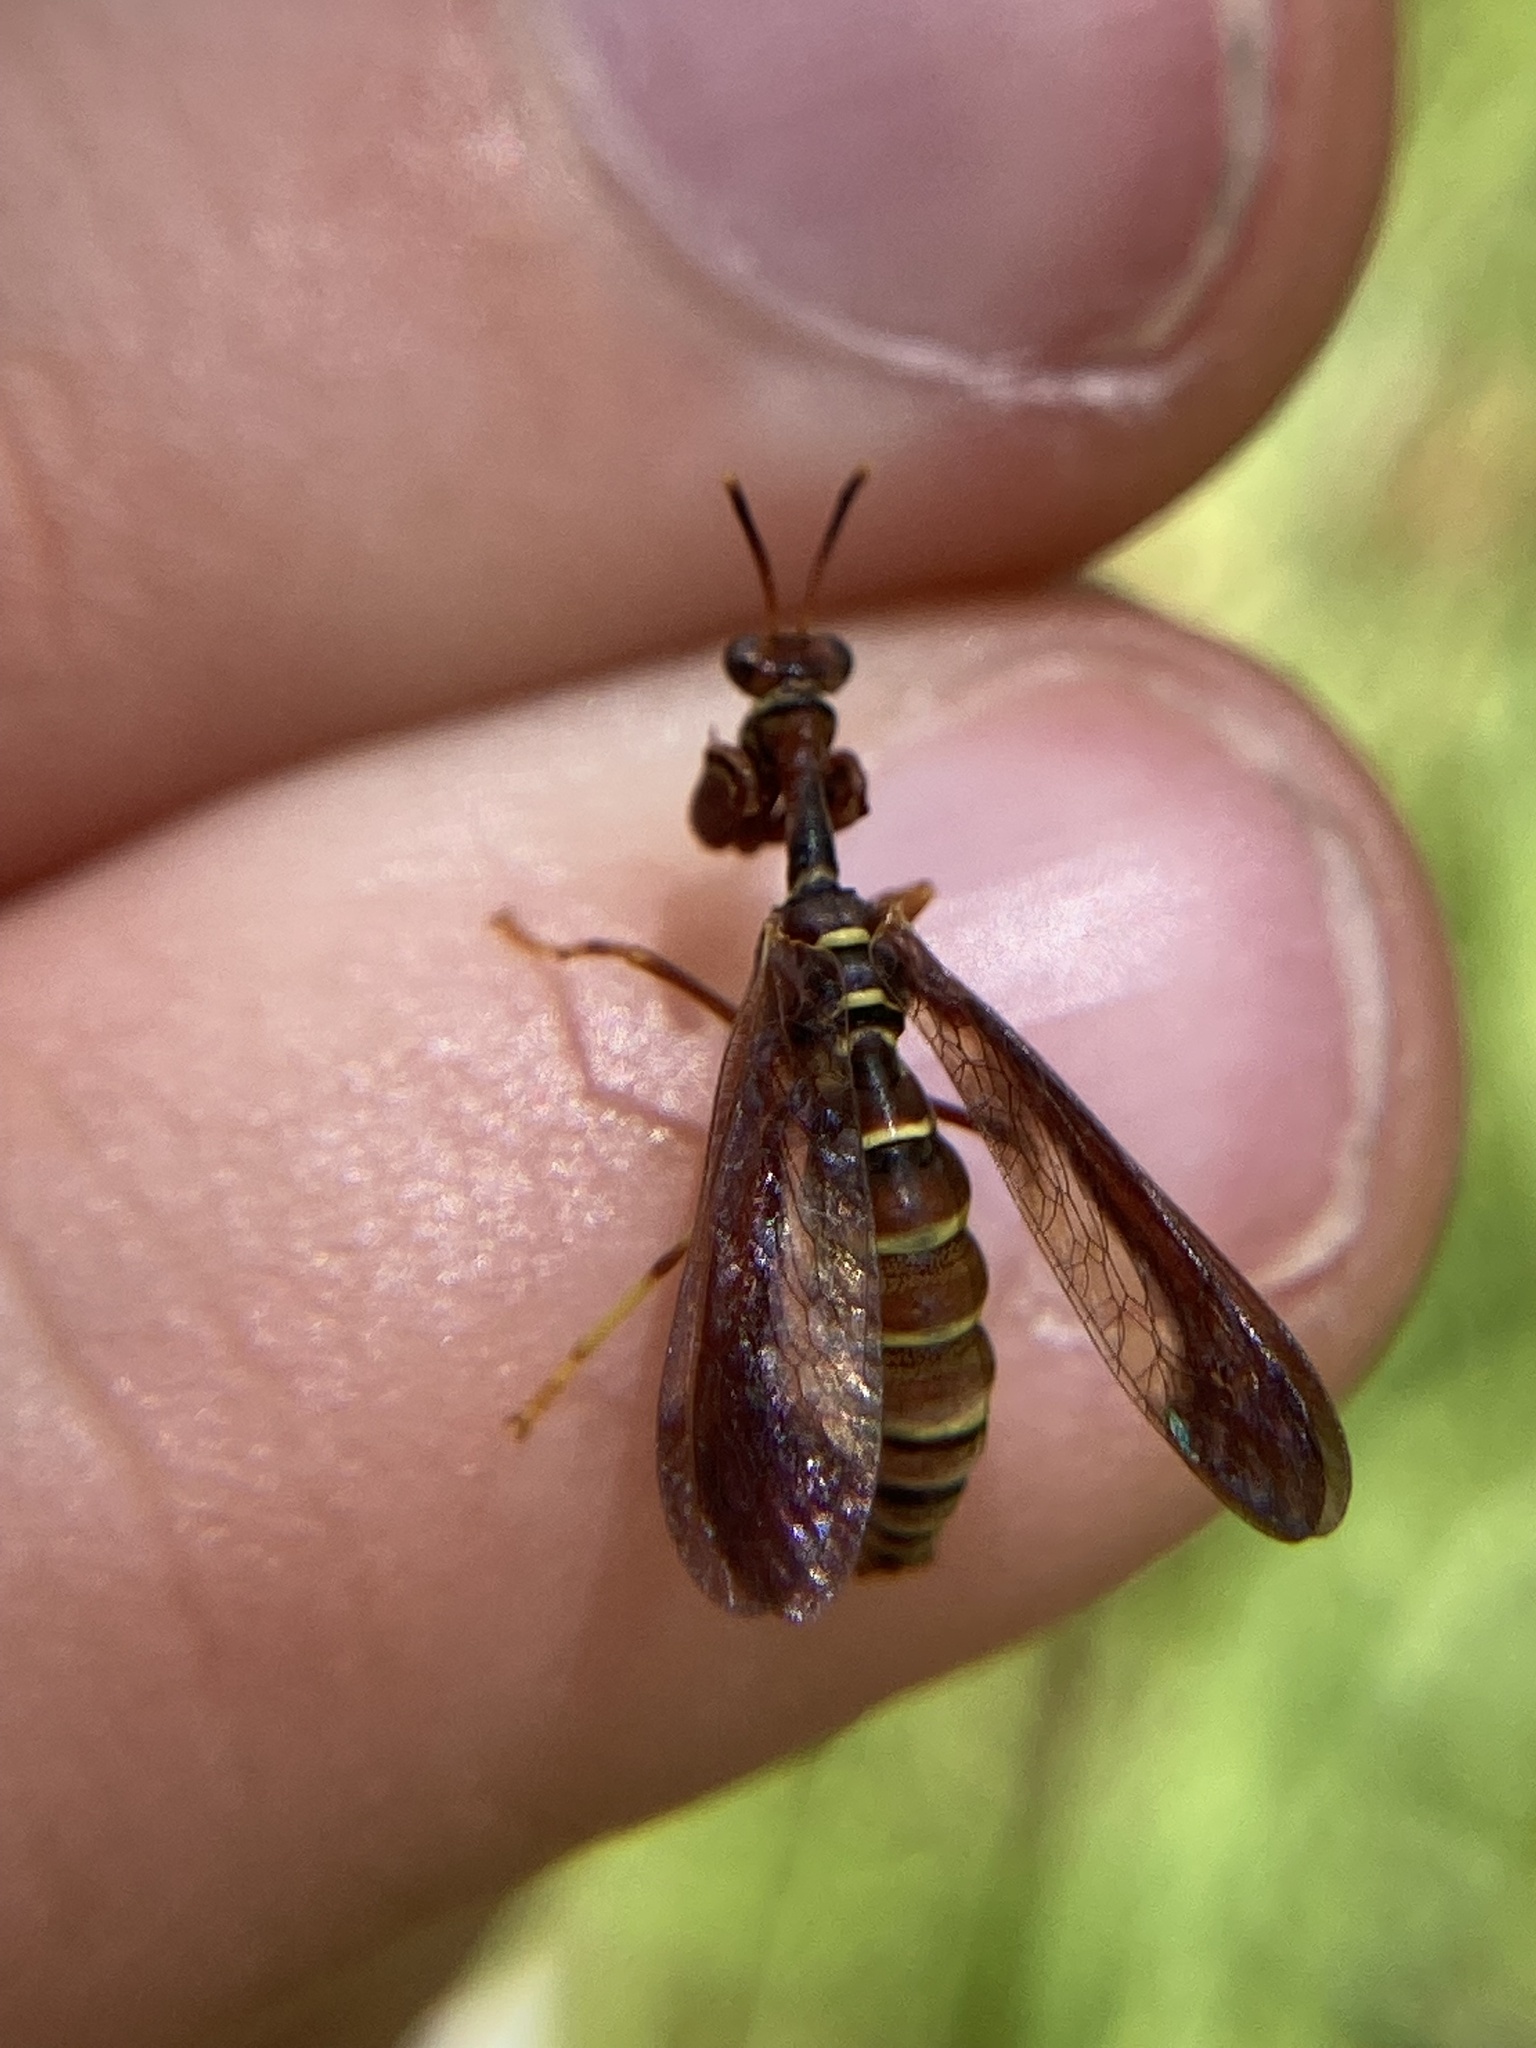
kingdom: Animalia
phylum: Arthropoda
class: Insecta
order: Neuroptera
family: Mantispidae
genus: Climaciella
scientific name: Climaciella brunnea
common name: Brown wasp mantidfly
